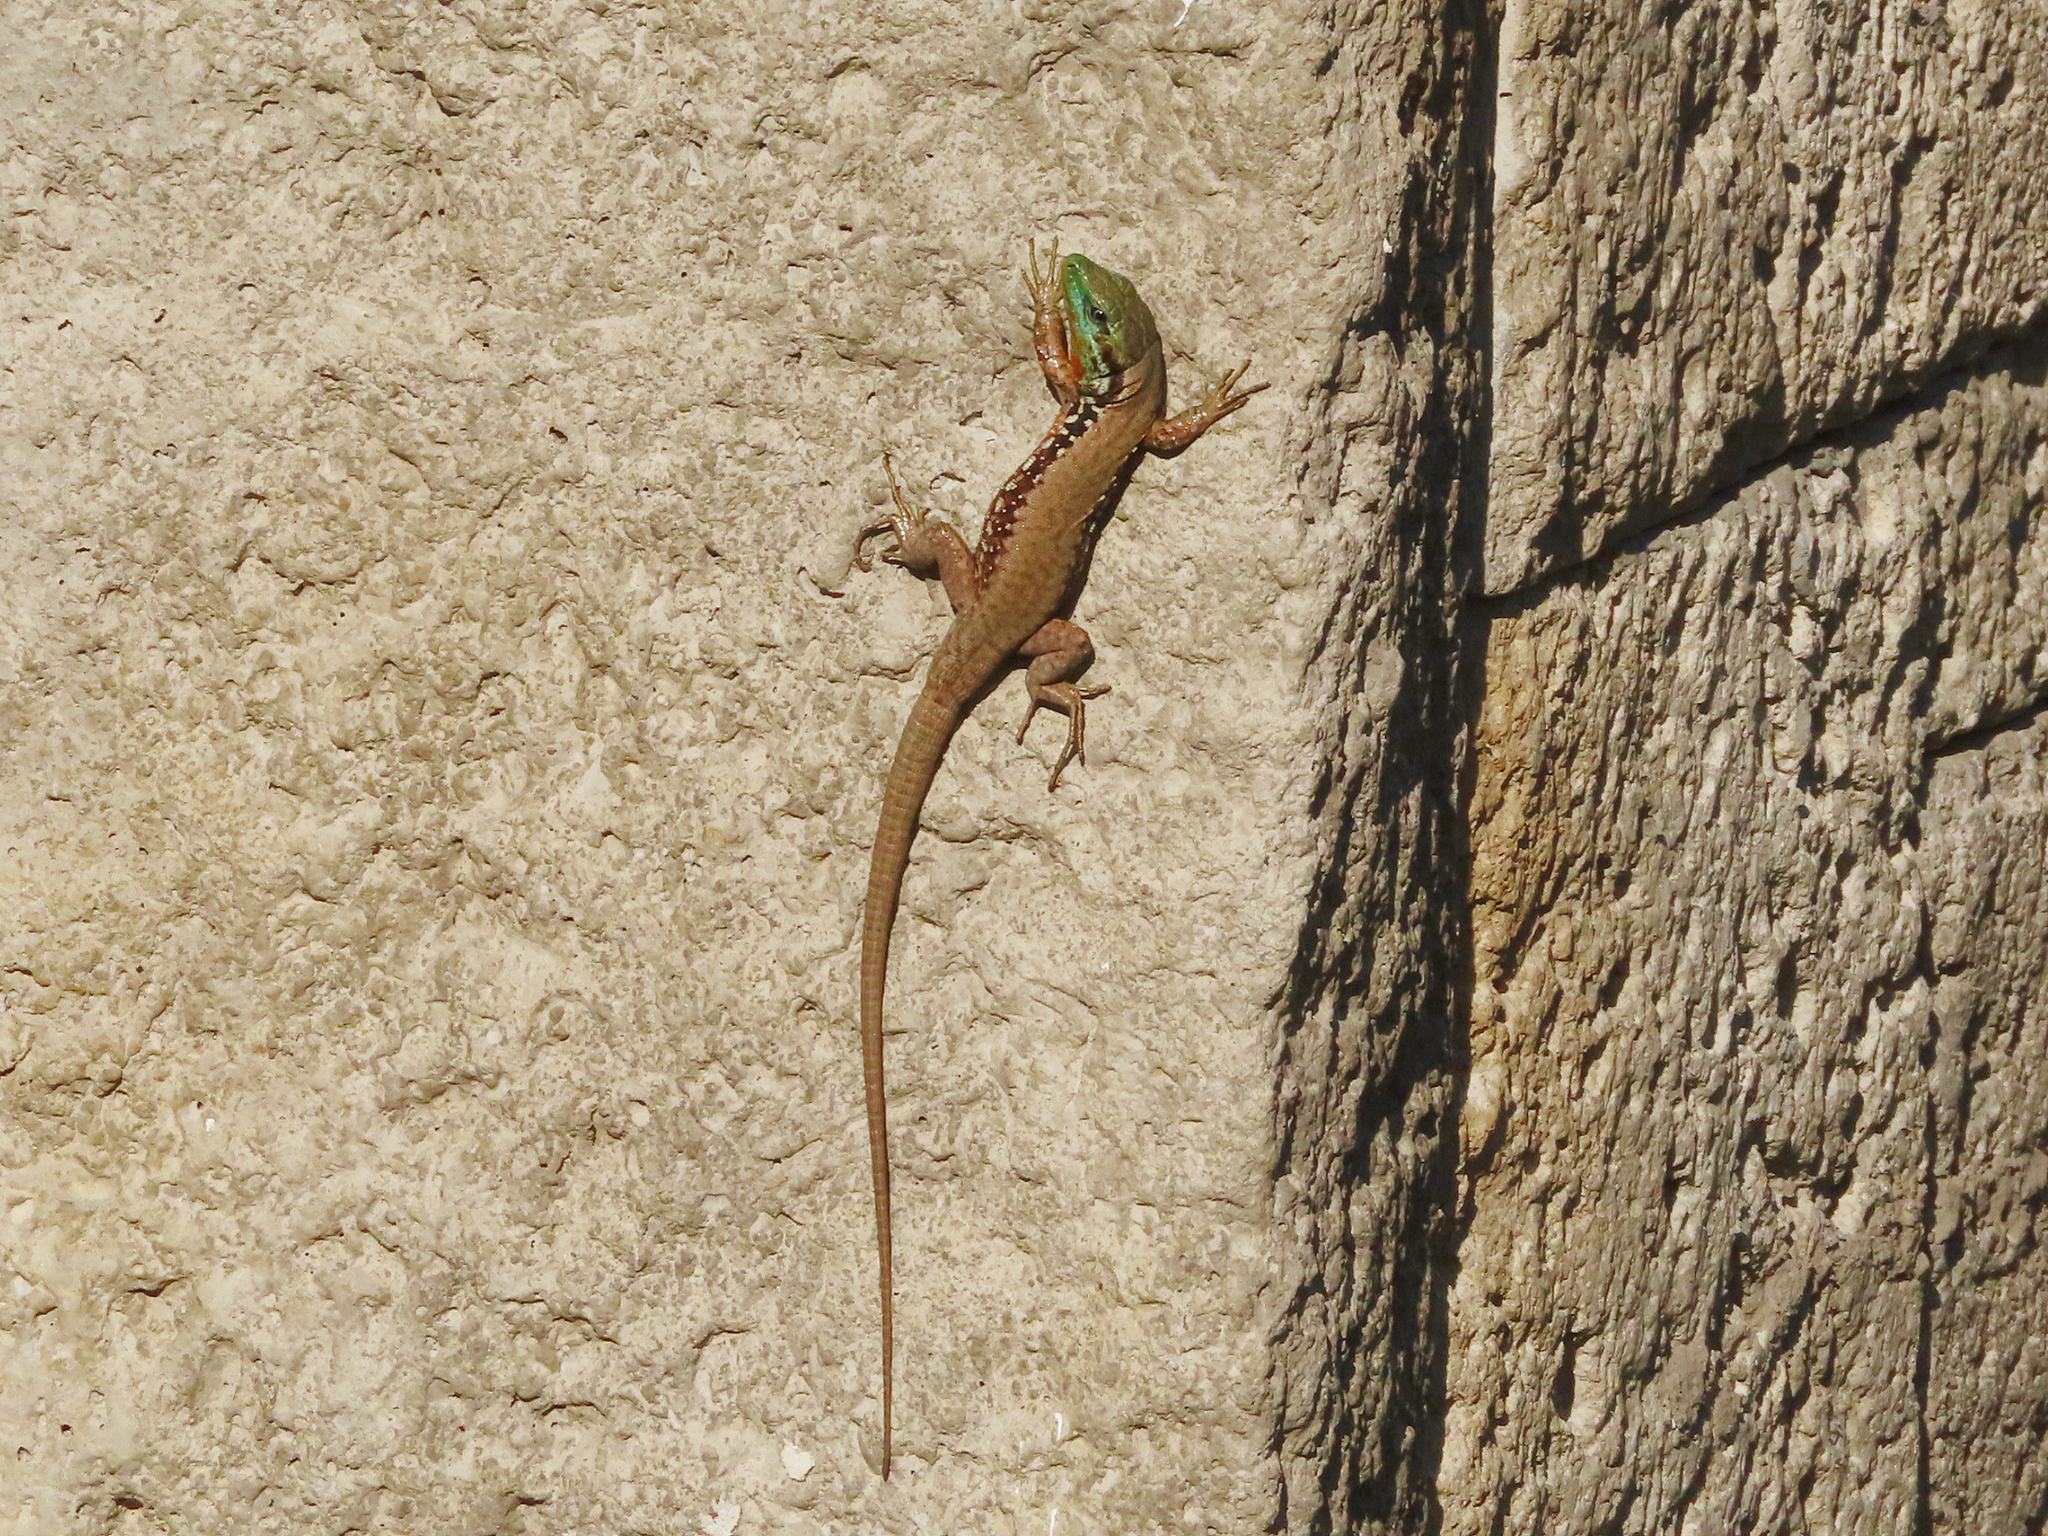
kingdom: Animalia
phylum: Chordata
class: Squamata
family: Lacertidae
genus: Phoenicolacerta
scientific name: Phoenicolacerta laevis
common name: Lebanon lizard
